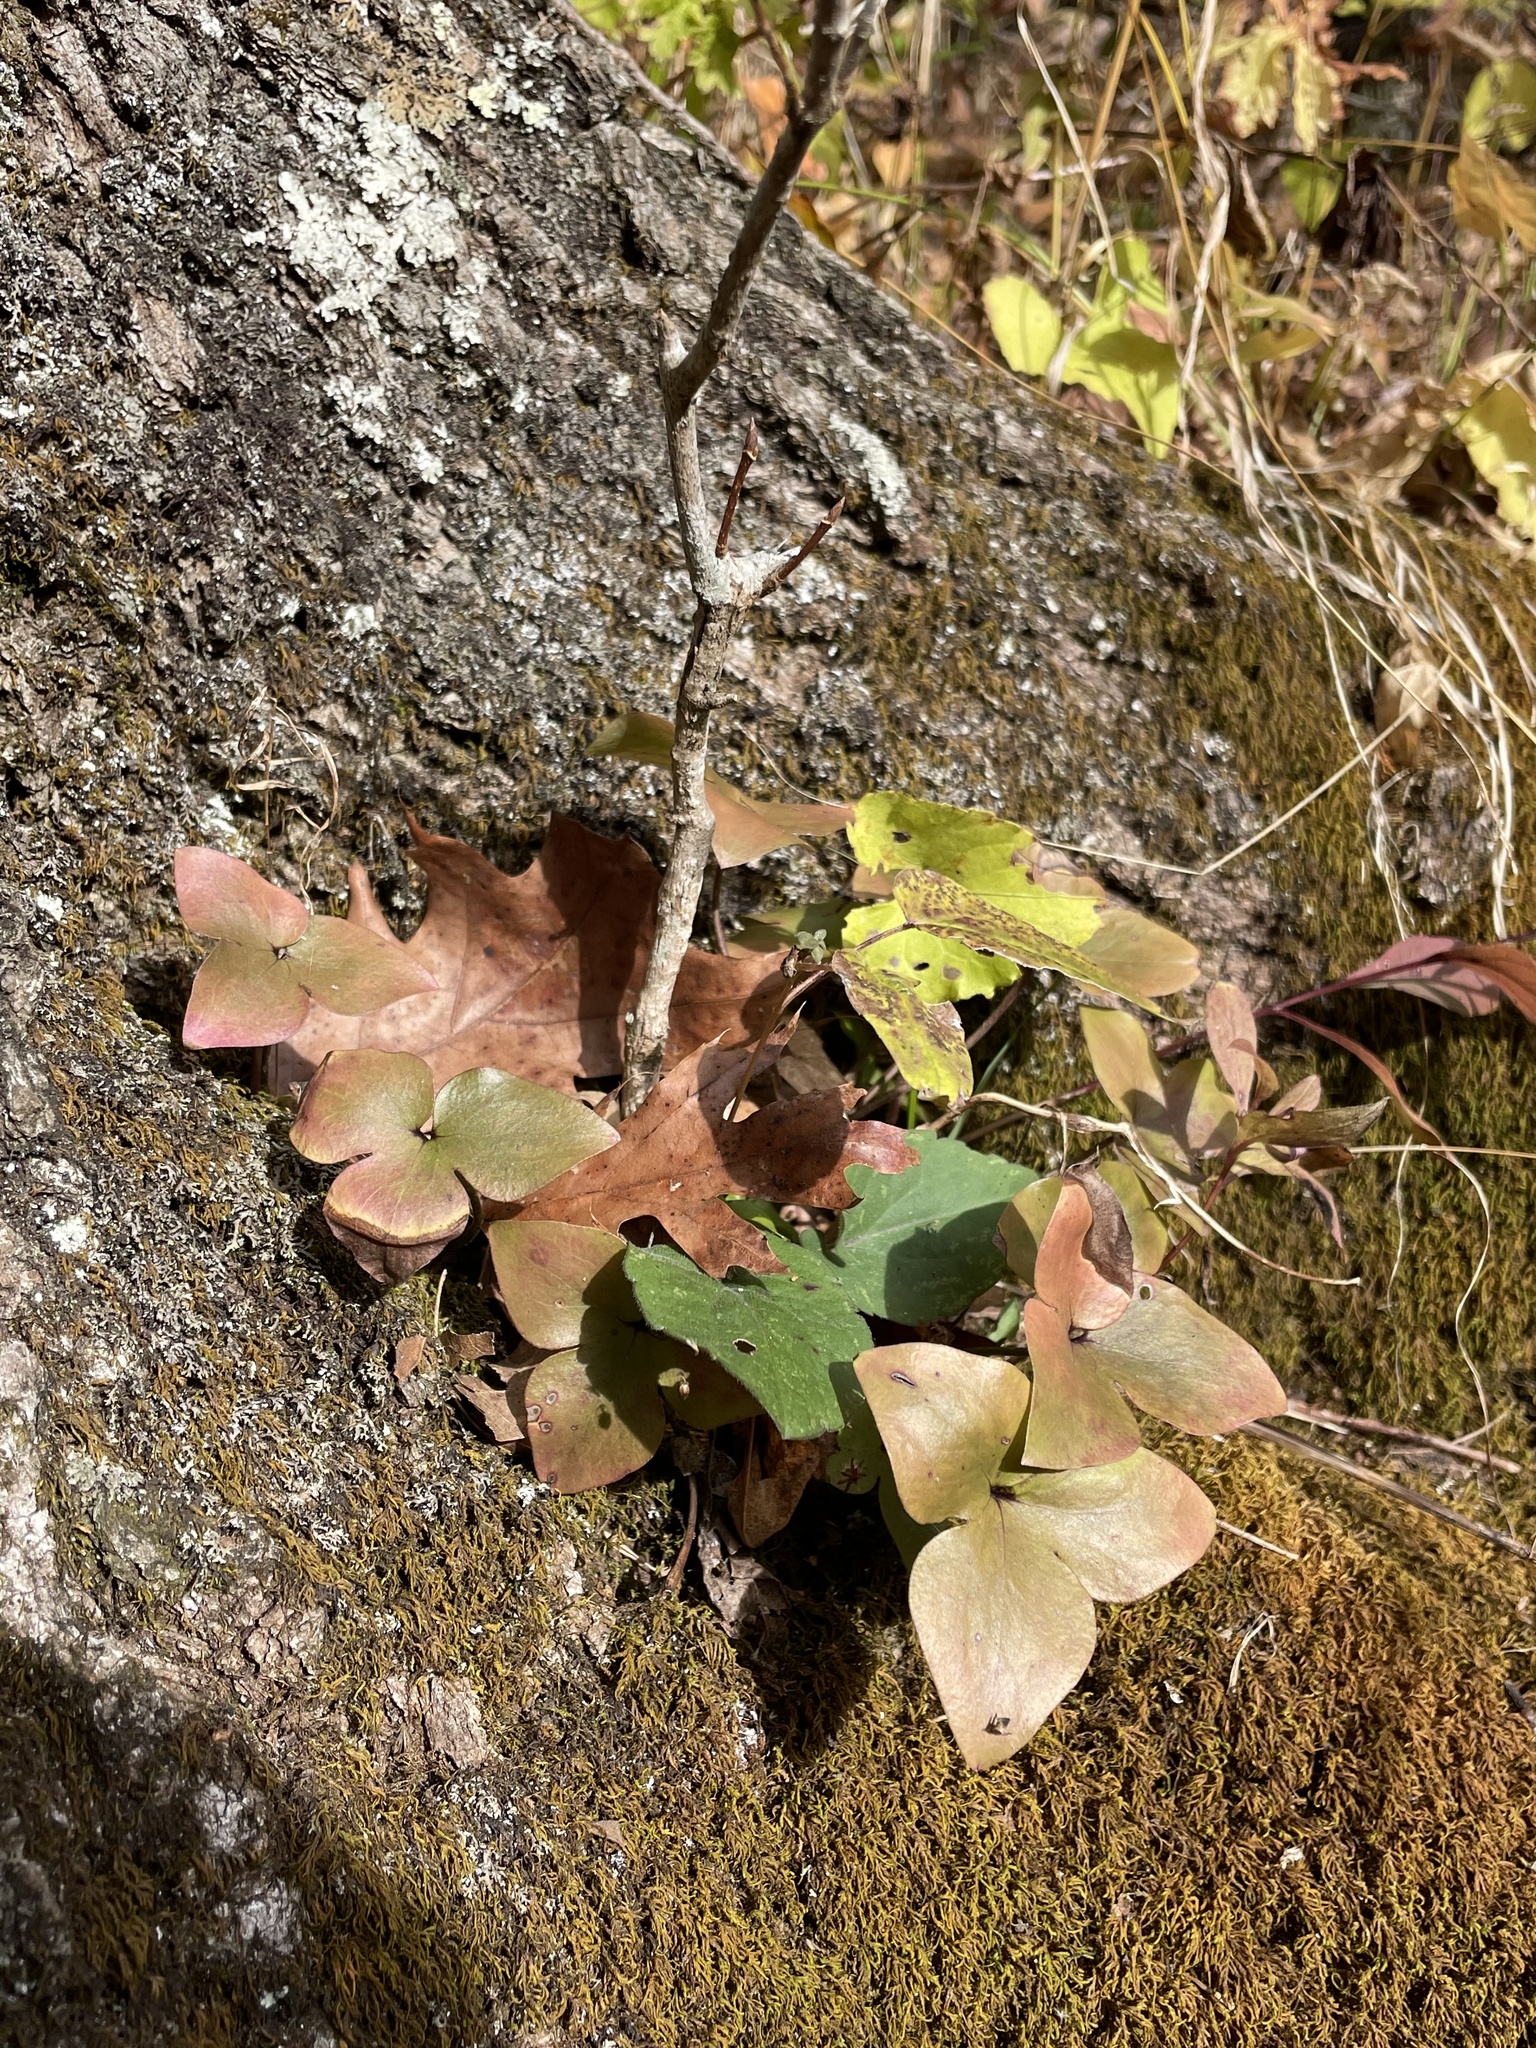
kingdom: Plantae
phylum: Tracheophyta
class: Magnoliopsida
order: Ranunculales
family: Ranunculaceae
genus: Hepatica
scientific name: Hepatica acutiloba
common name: Sharp-lobed hepatica
